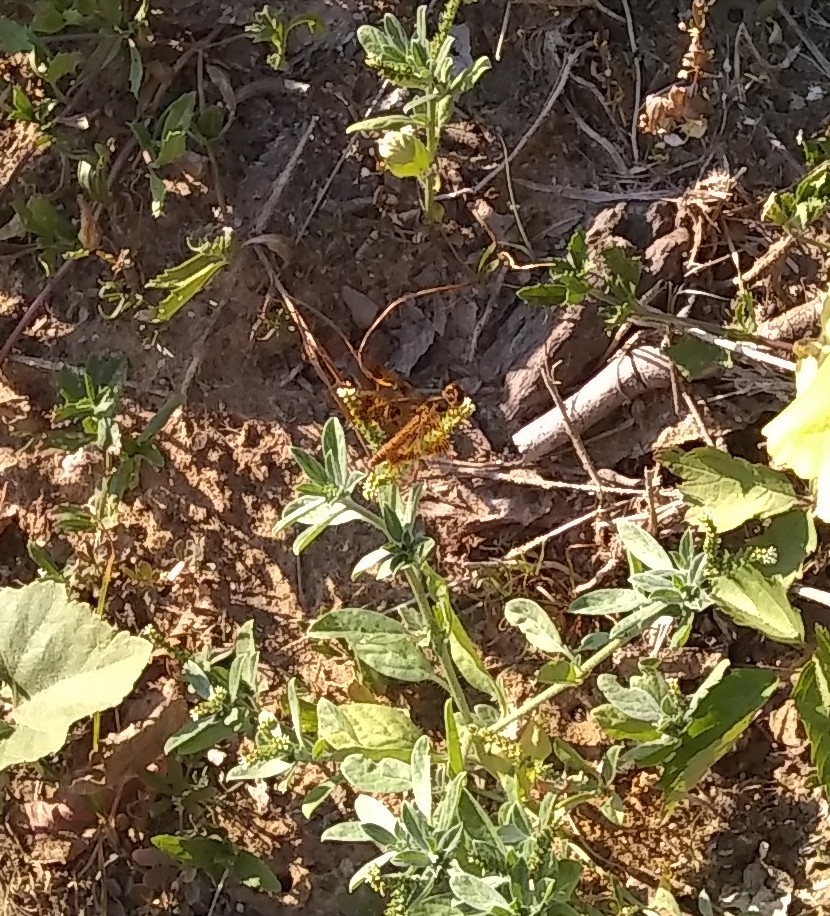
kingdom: Animalia
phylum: Arthropoda
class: Insecta
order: Odonata
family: Libellulidae
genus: Perithemis
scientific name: Perithemis tenera
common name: Eastern amberwing
